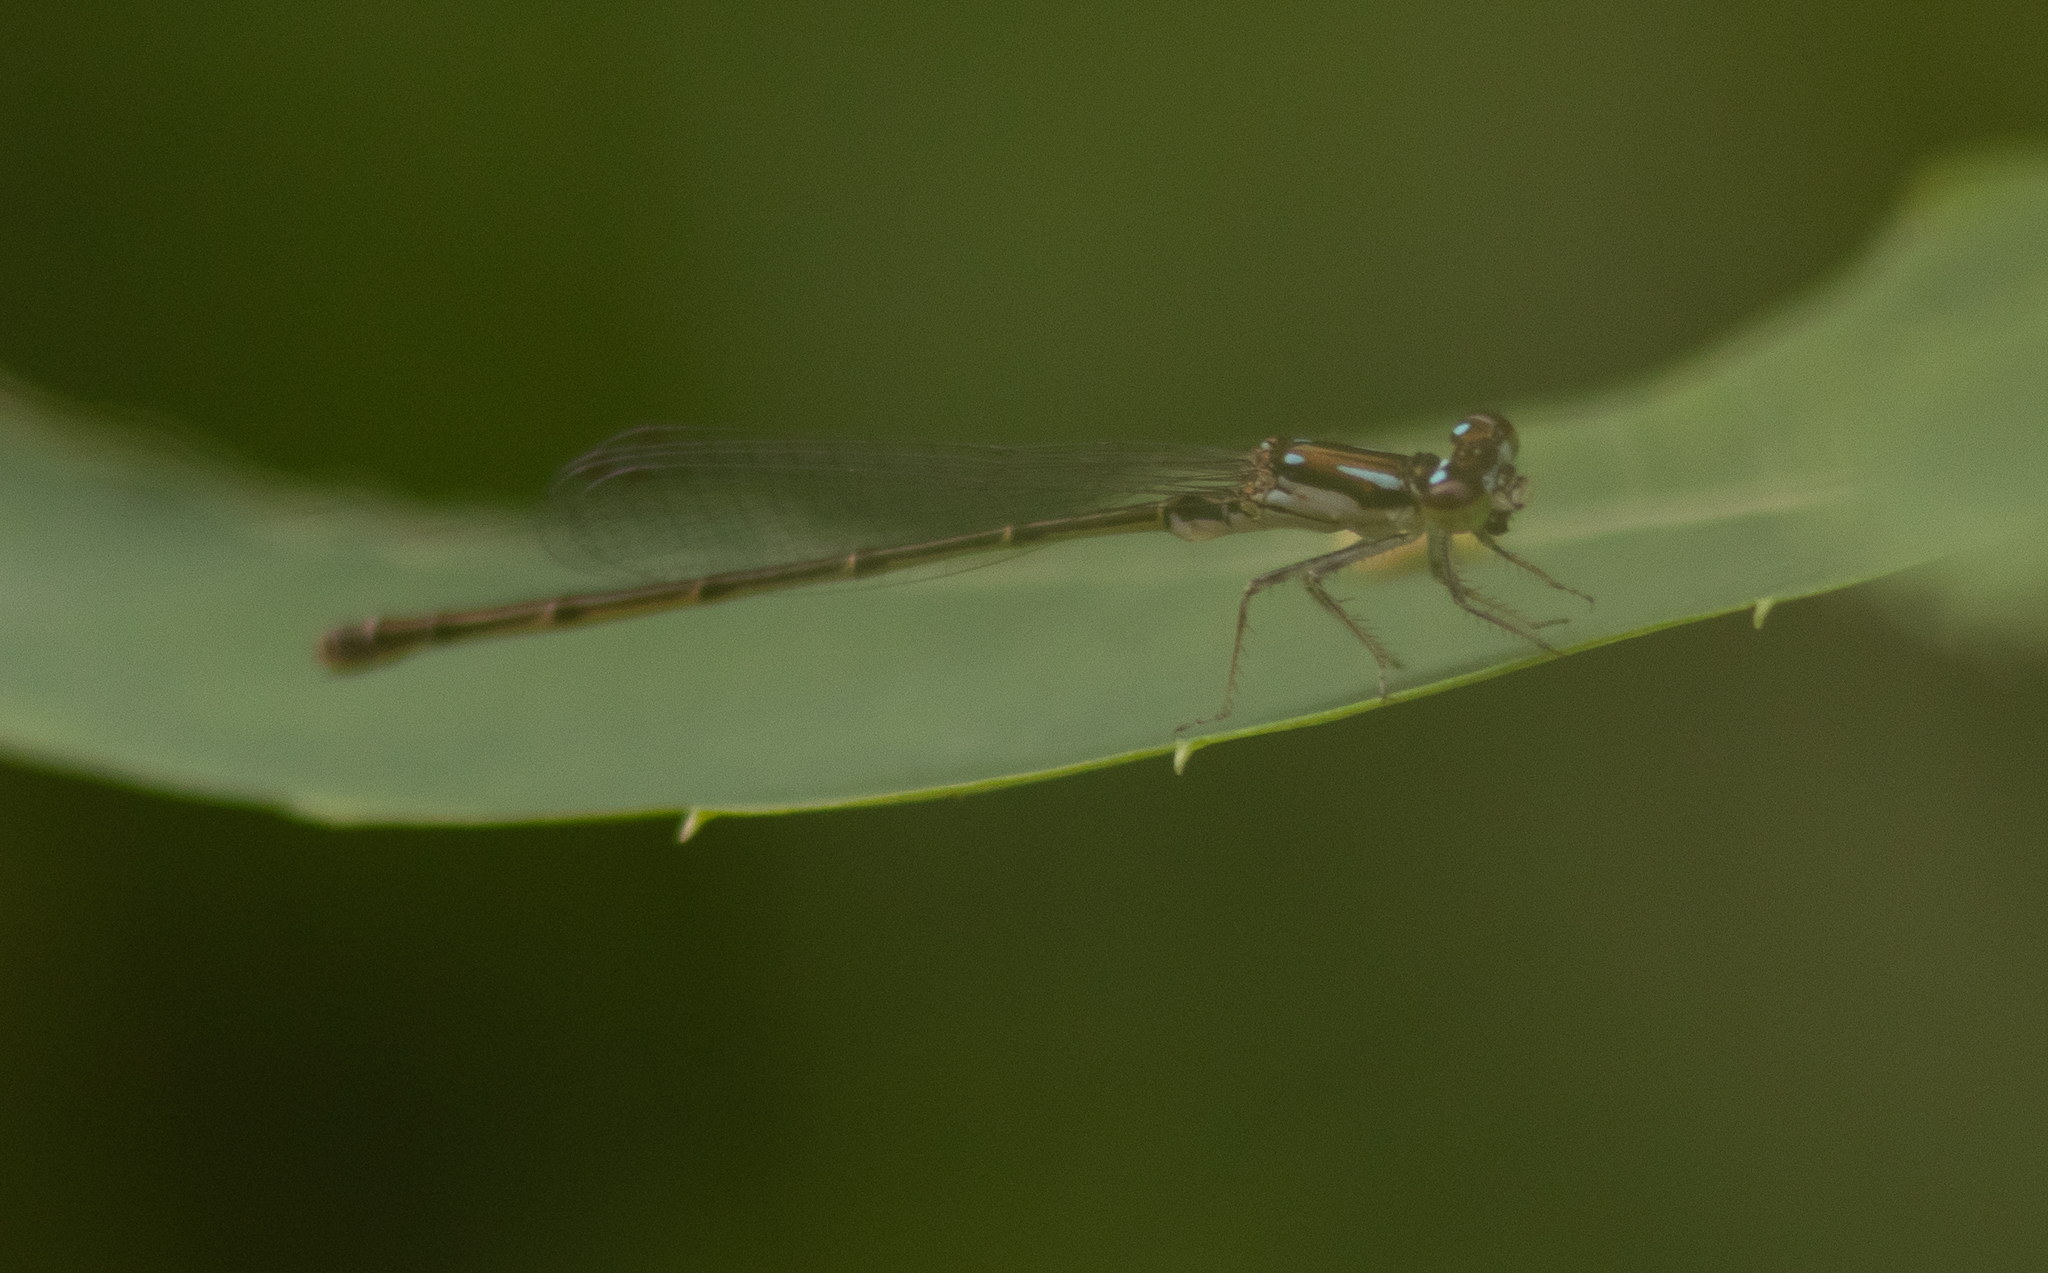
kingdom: Animalia
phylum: Arthropoda
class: Insecta
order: Odonata
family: Coenagrionidae
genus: Ischnura
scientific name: Ischnura posita
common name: Fragile forktail
